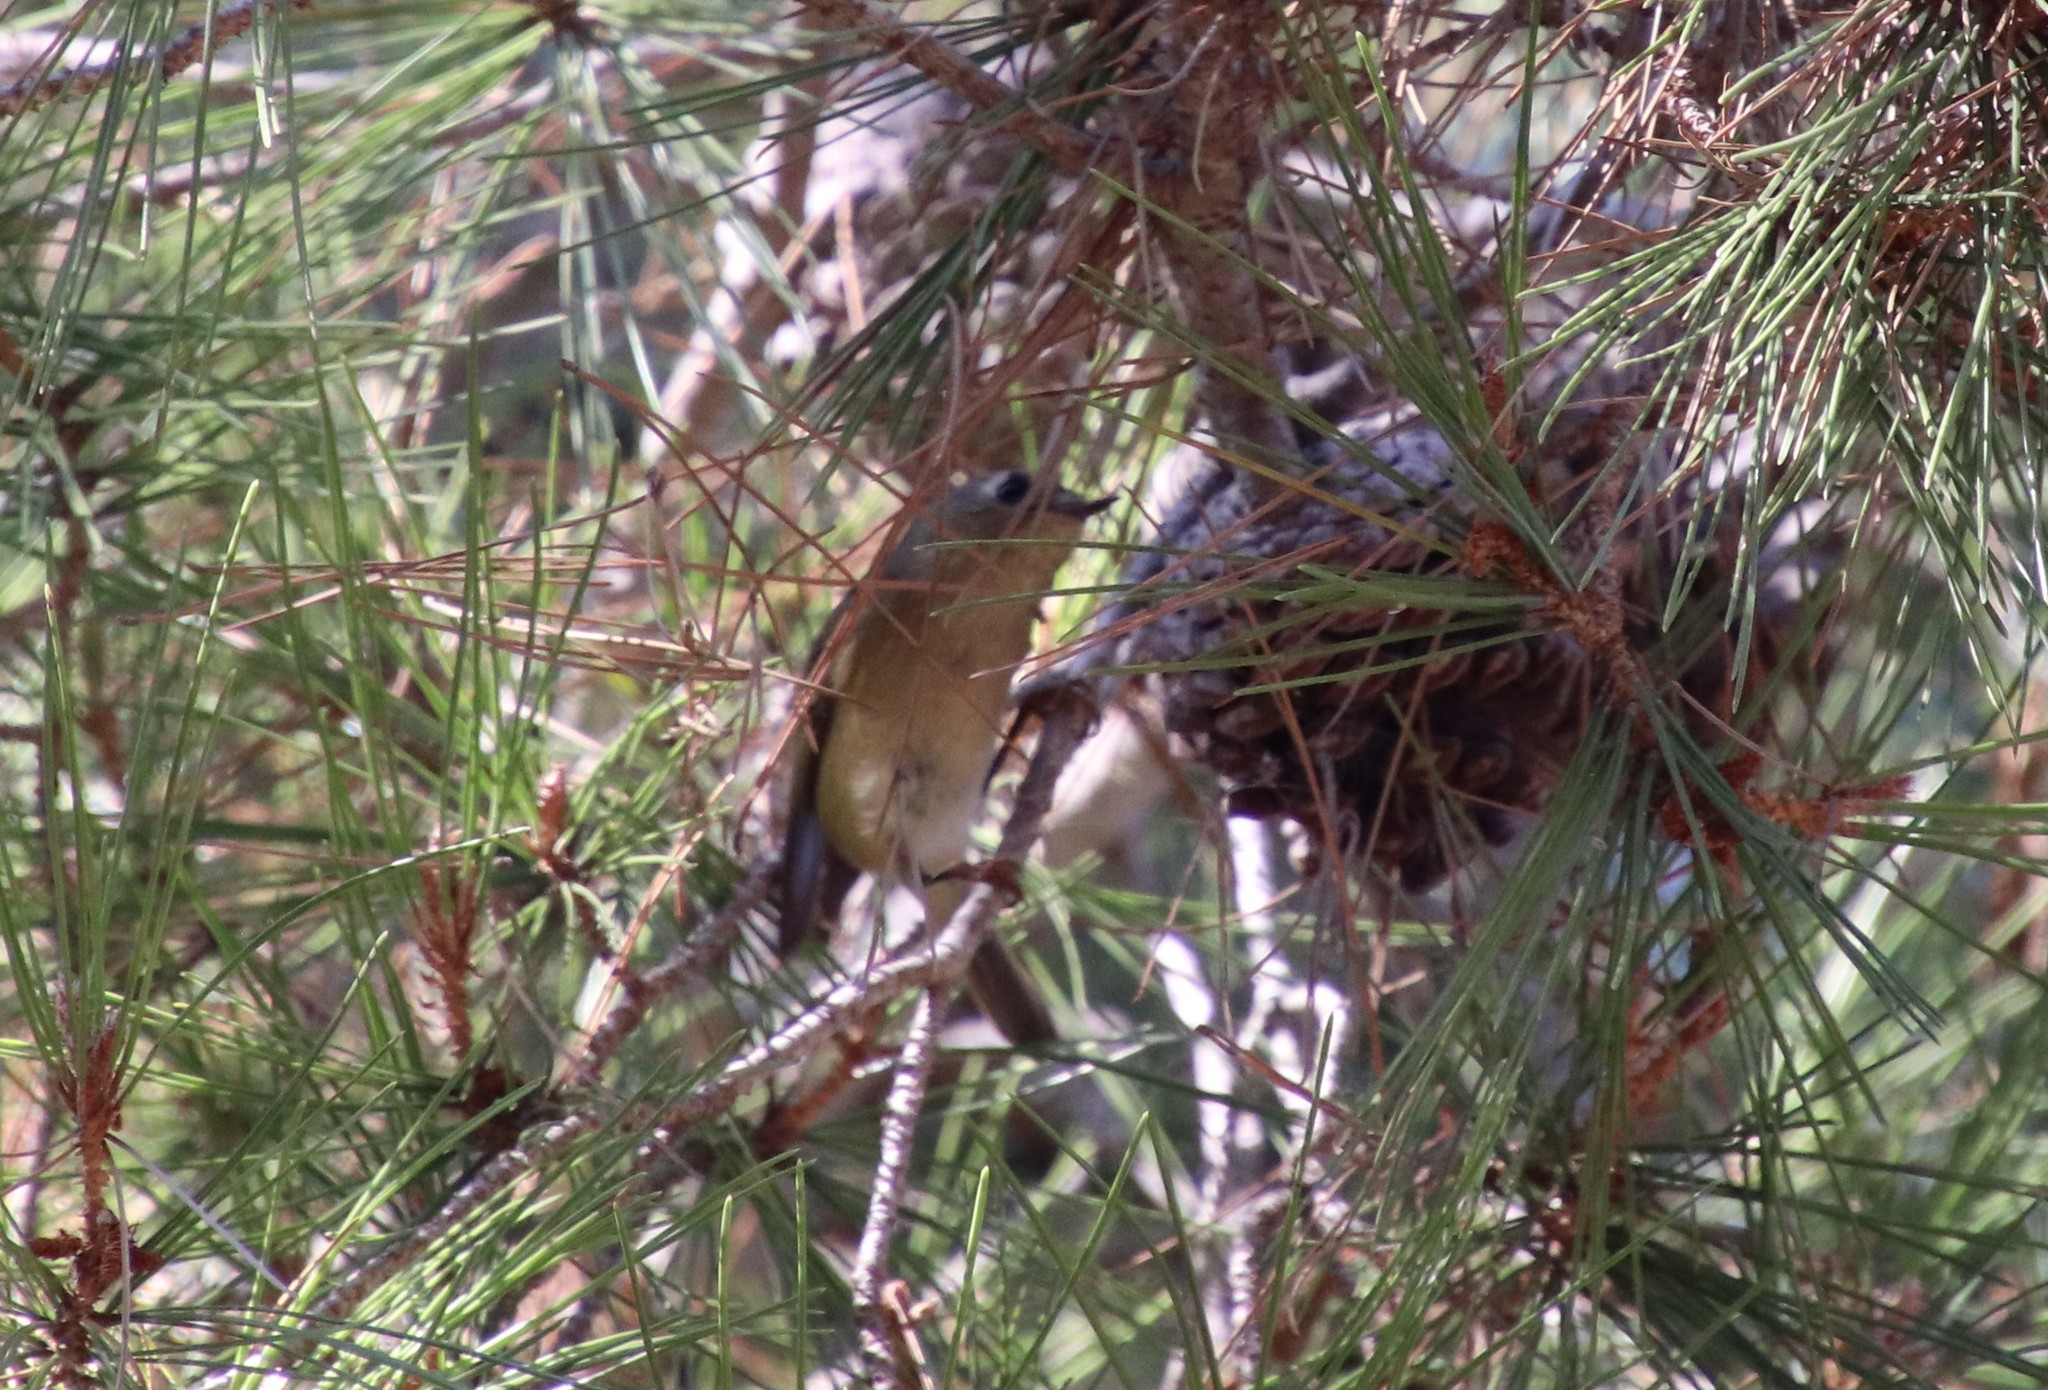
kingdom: Animalia
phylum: Chordata
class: Aves
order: Passeriformes
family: Regulidae
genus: Regulus
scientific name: Regulus calendula
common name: Ruby-crowned kinglet
